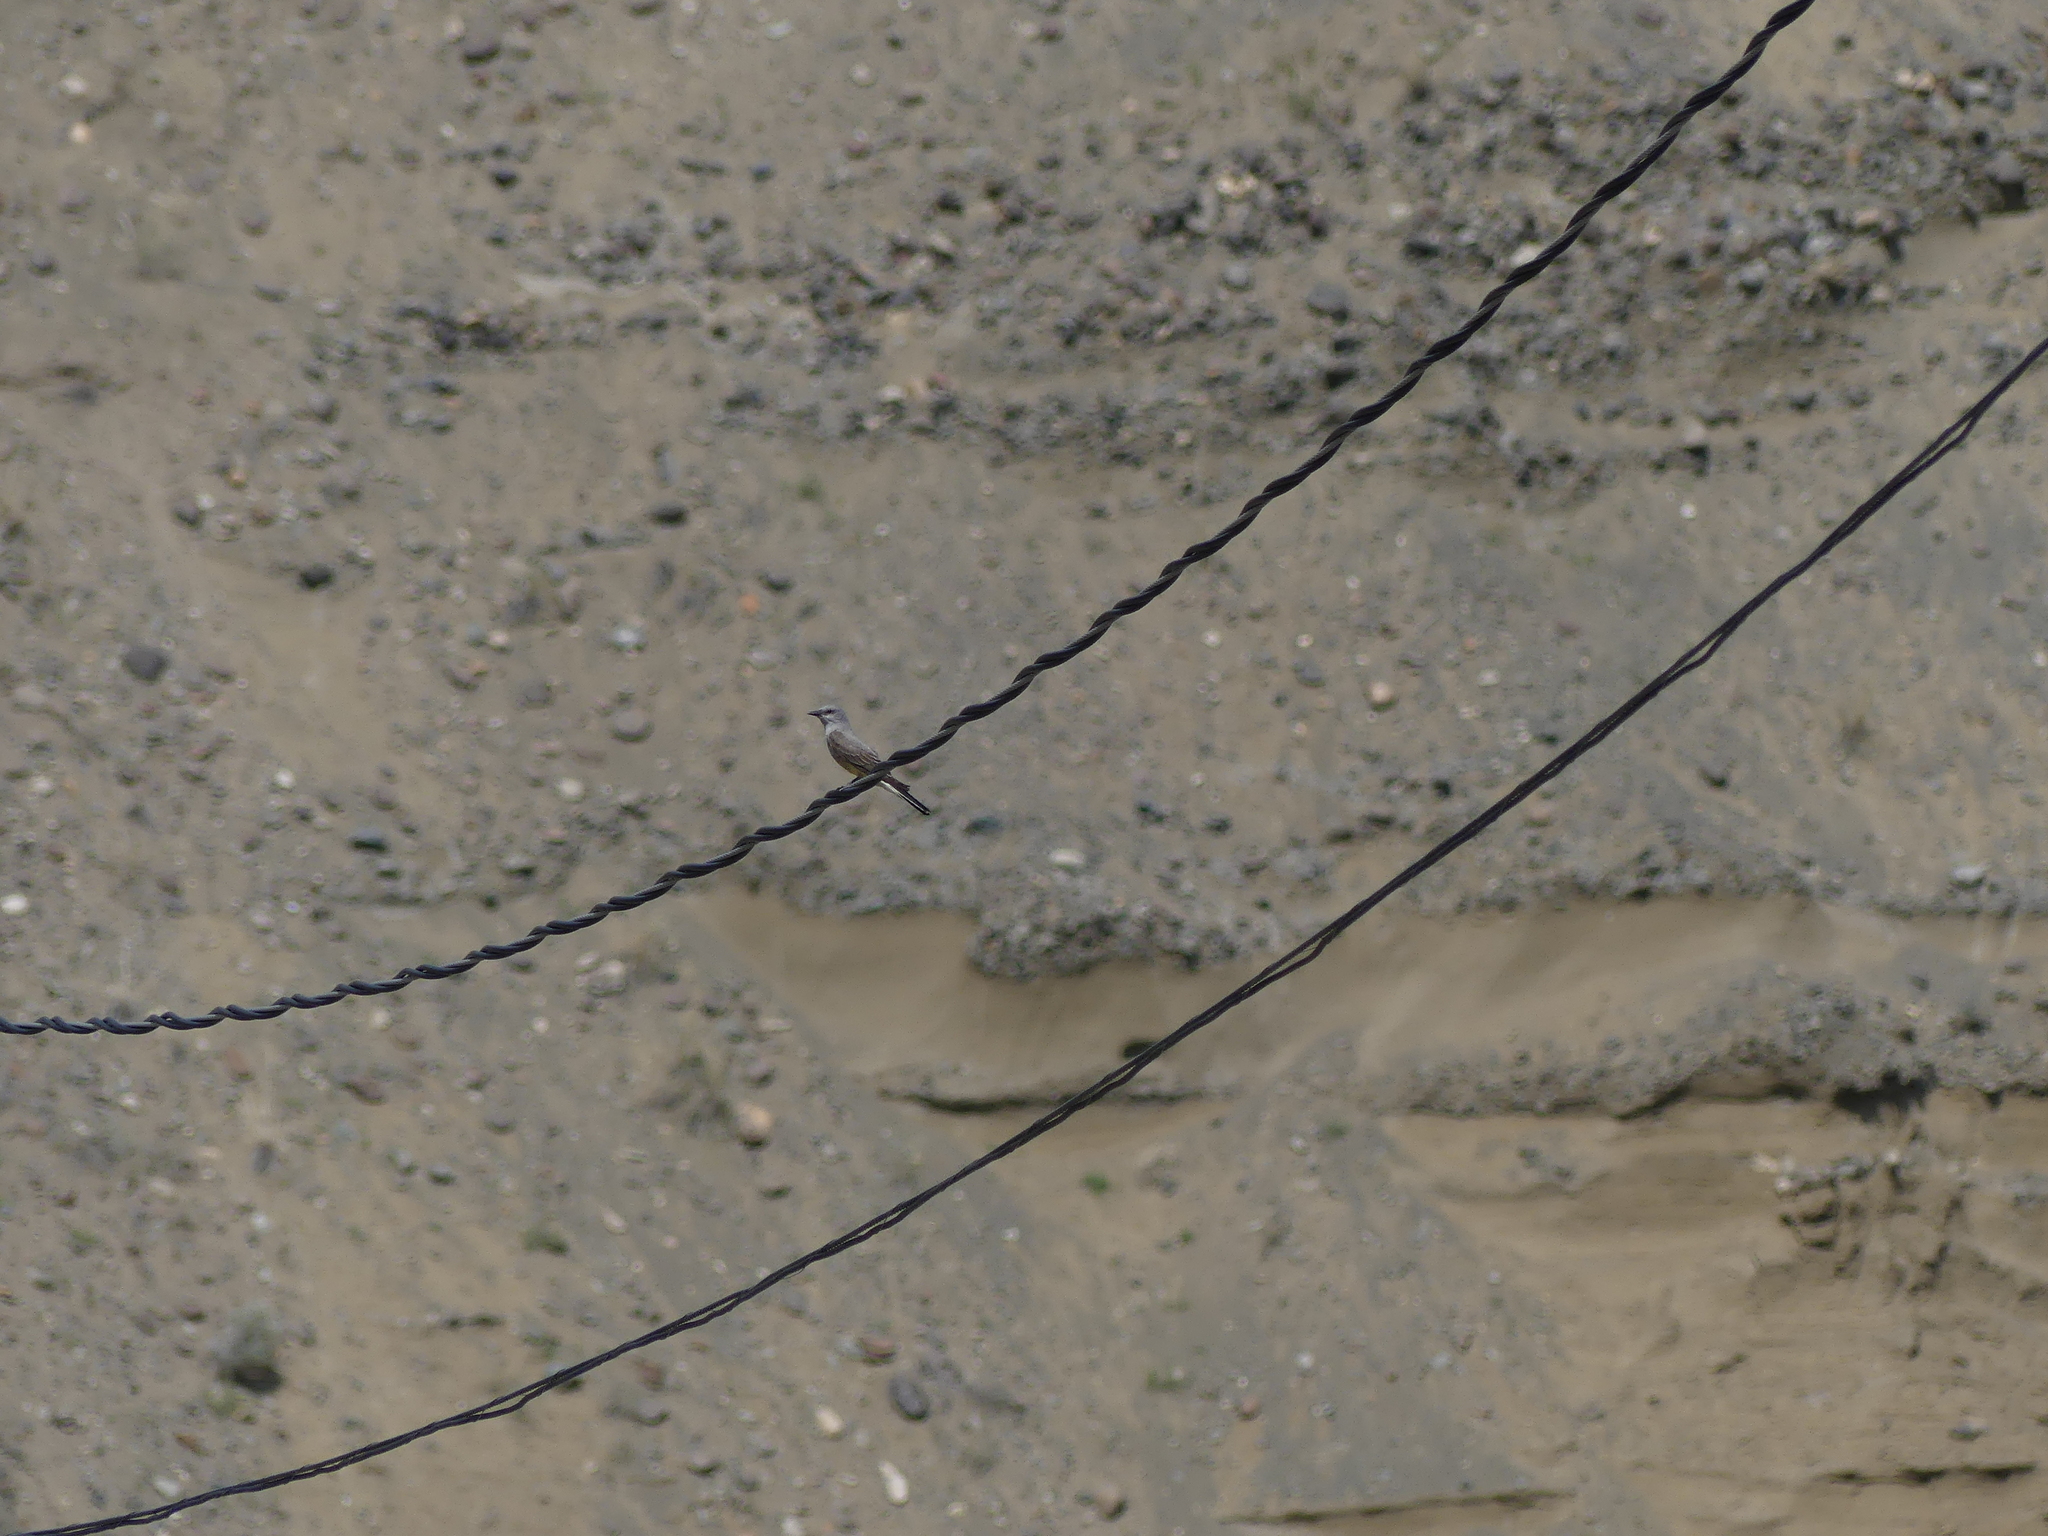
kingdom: Animalia
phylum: Chordata
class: Aves
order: Passeriformes
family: Tyrannidae
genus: Tyrannus
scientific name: Tyrannus verticalis
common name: Western kingbird
